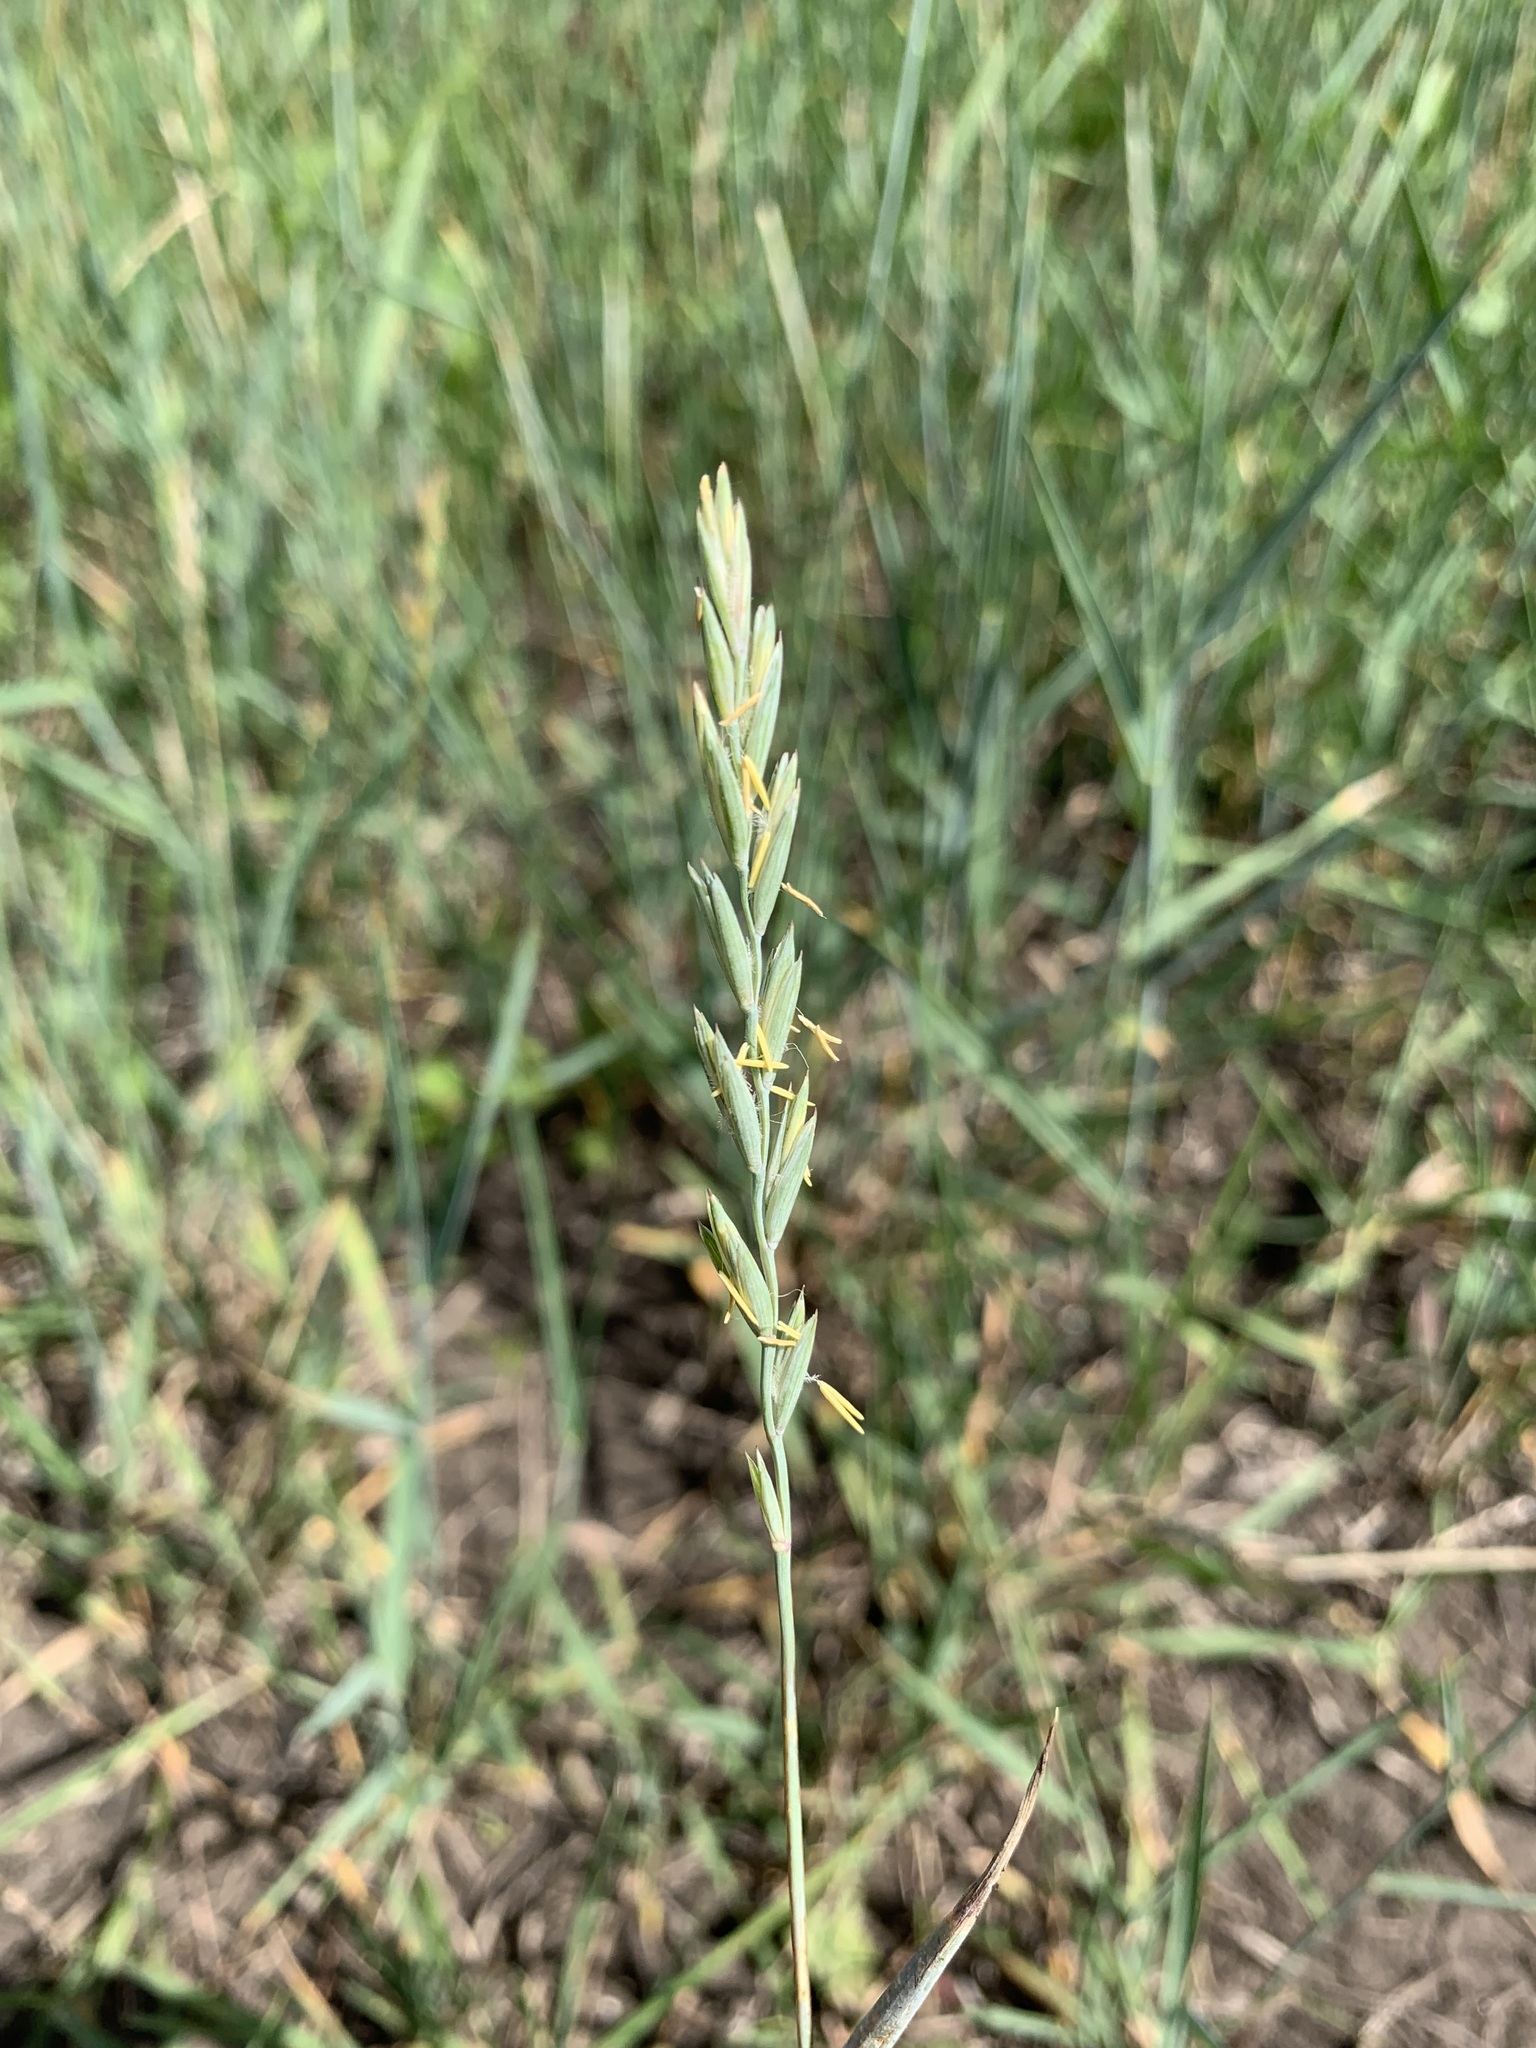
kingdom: Plantae
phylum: Tracheophyta
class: Liliopsida
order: Poales
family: Poaceae
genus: Elymus
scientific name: Elymus repens
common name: Quackgrass
